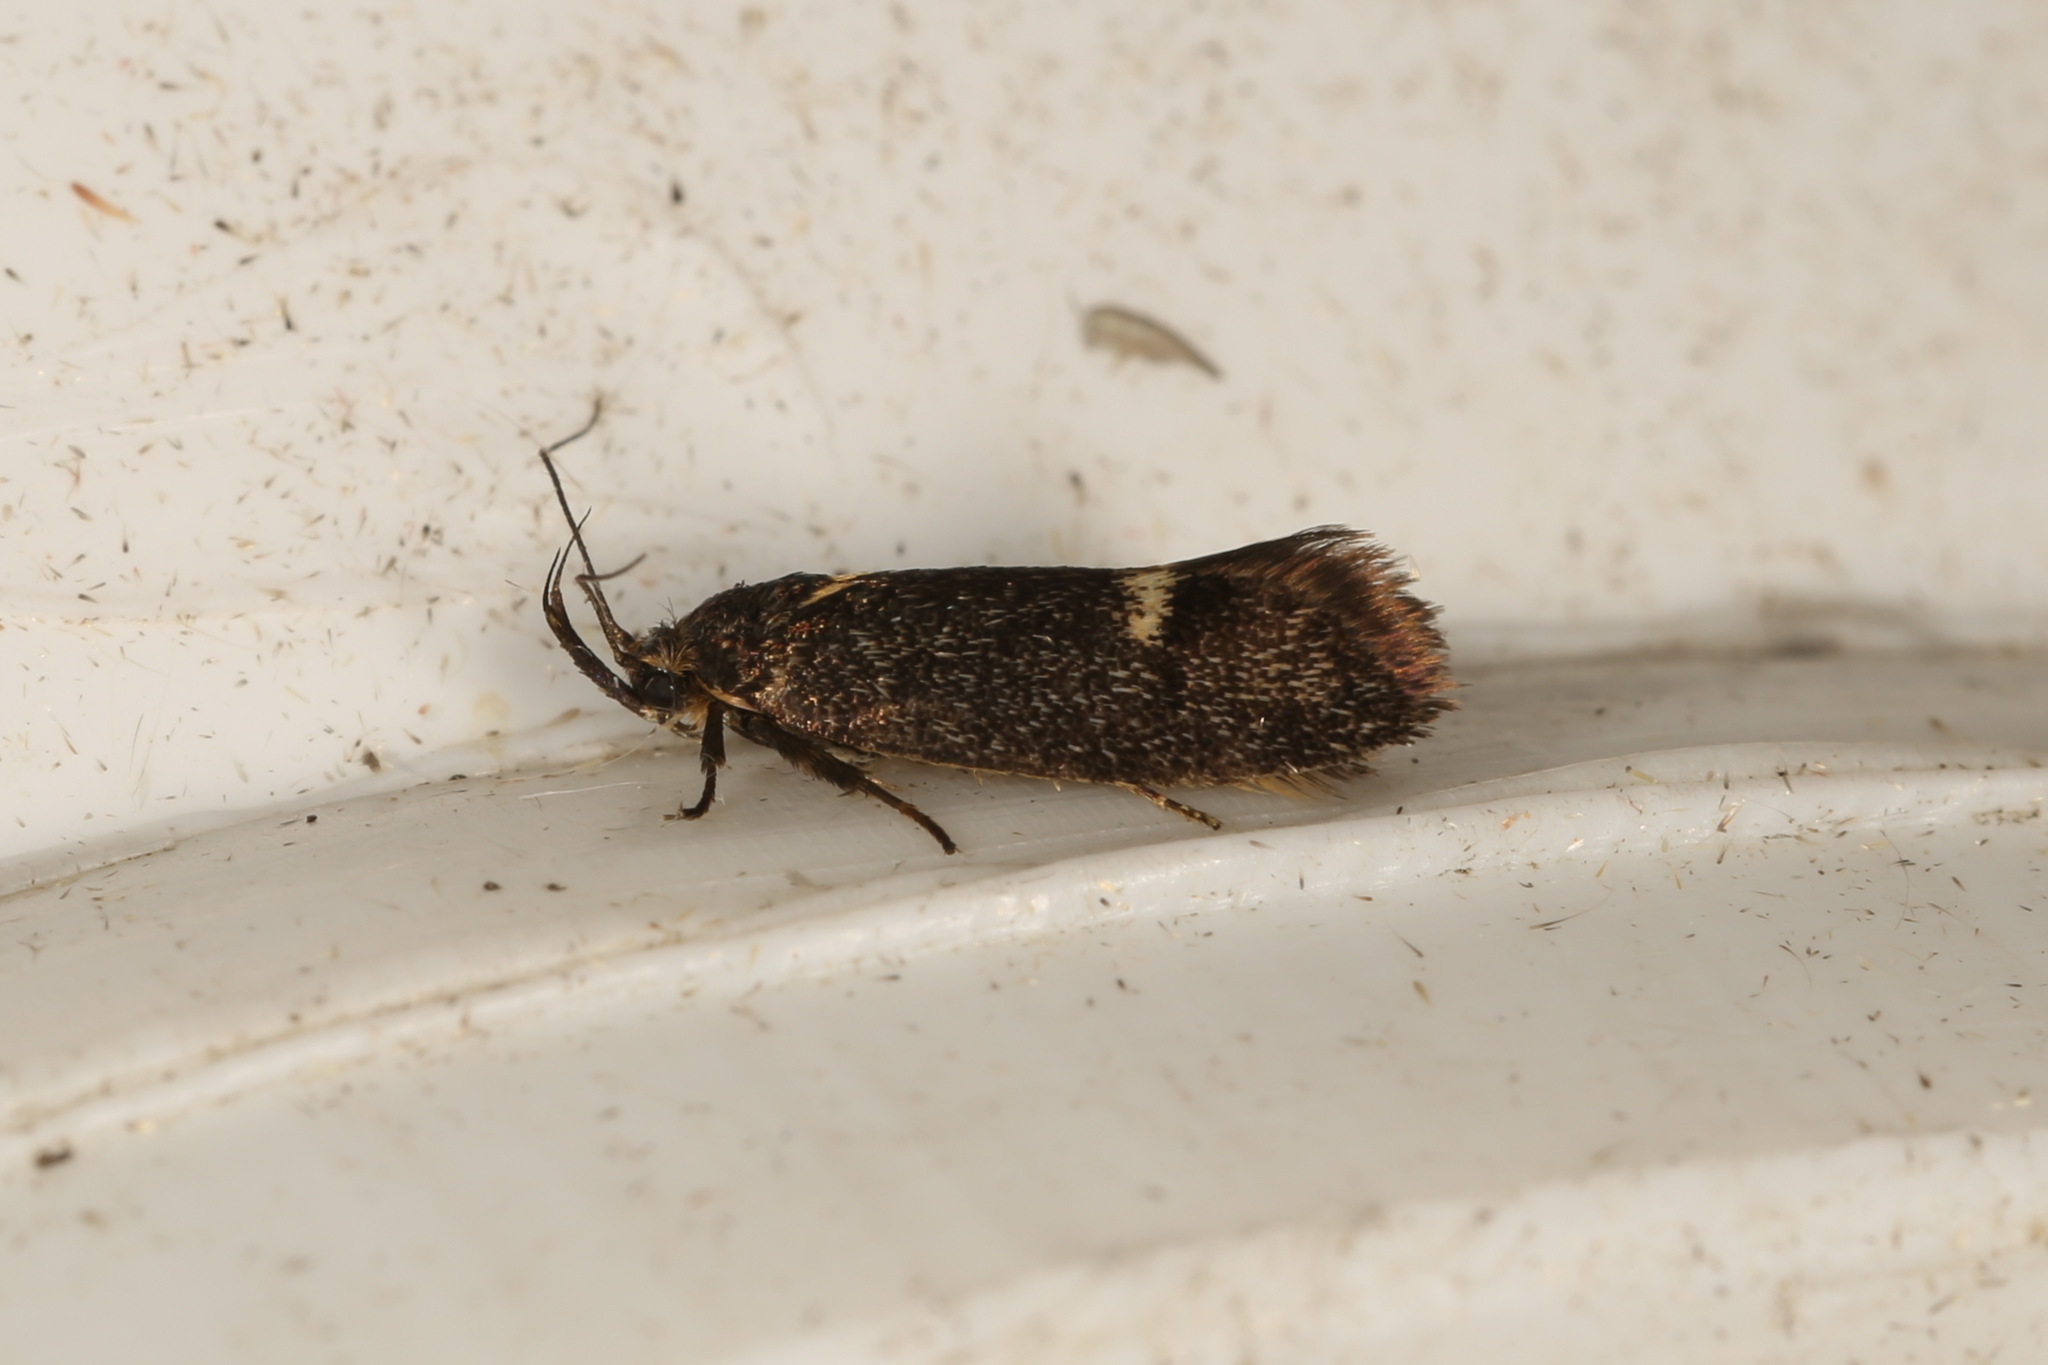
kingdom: Animalia
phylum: Arthropoda
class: Insecta
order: Lepidoptera
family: Oecophoridae
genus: Leistomorpha
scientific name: Leistomorpha brontoscopa
